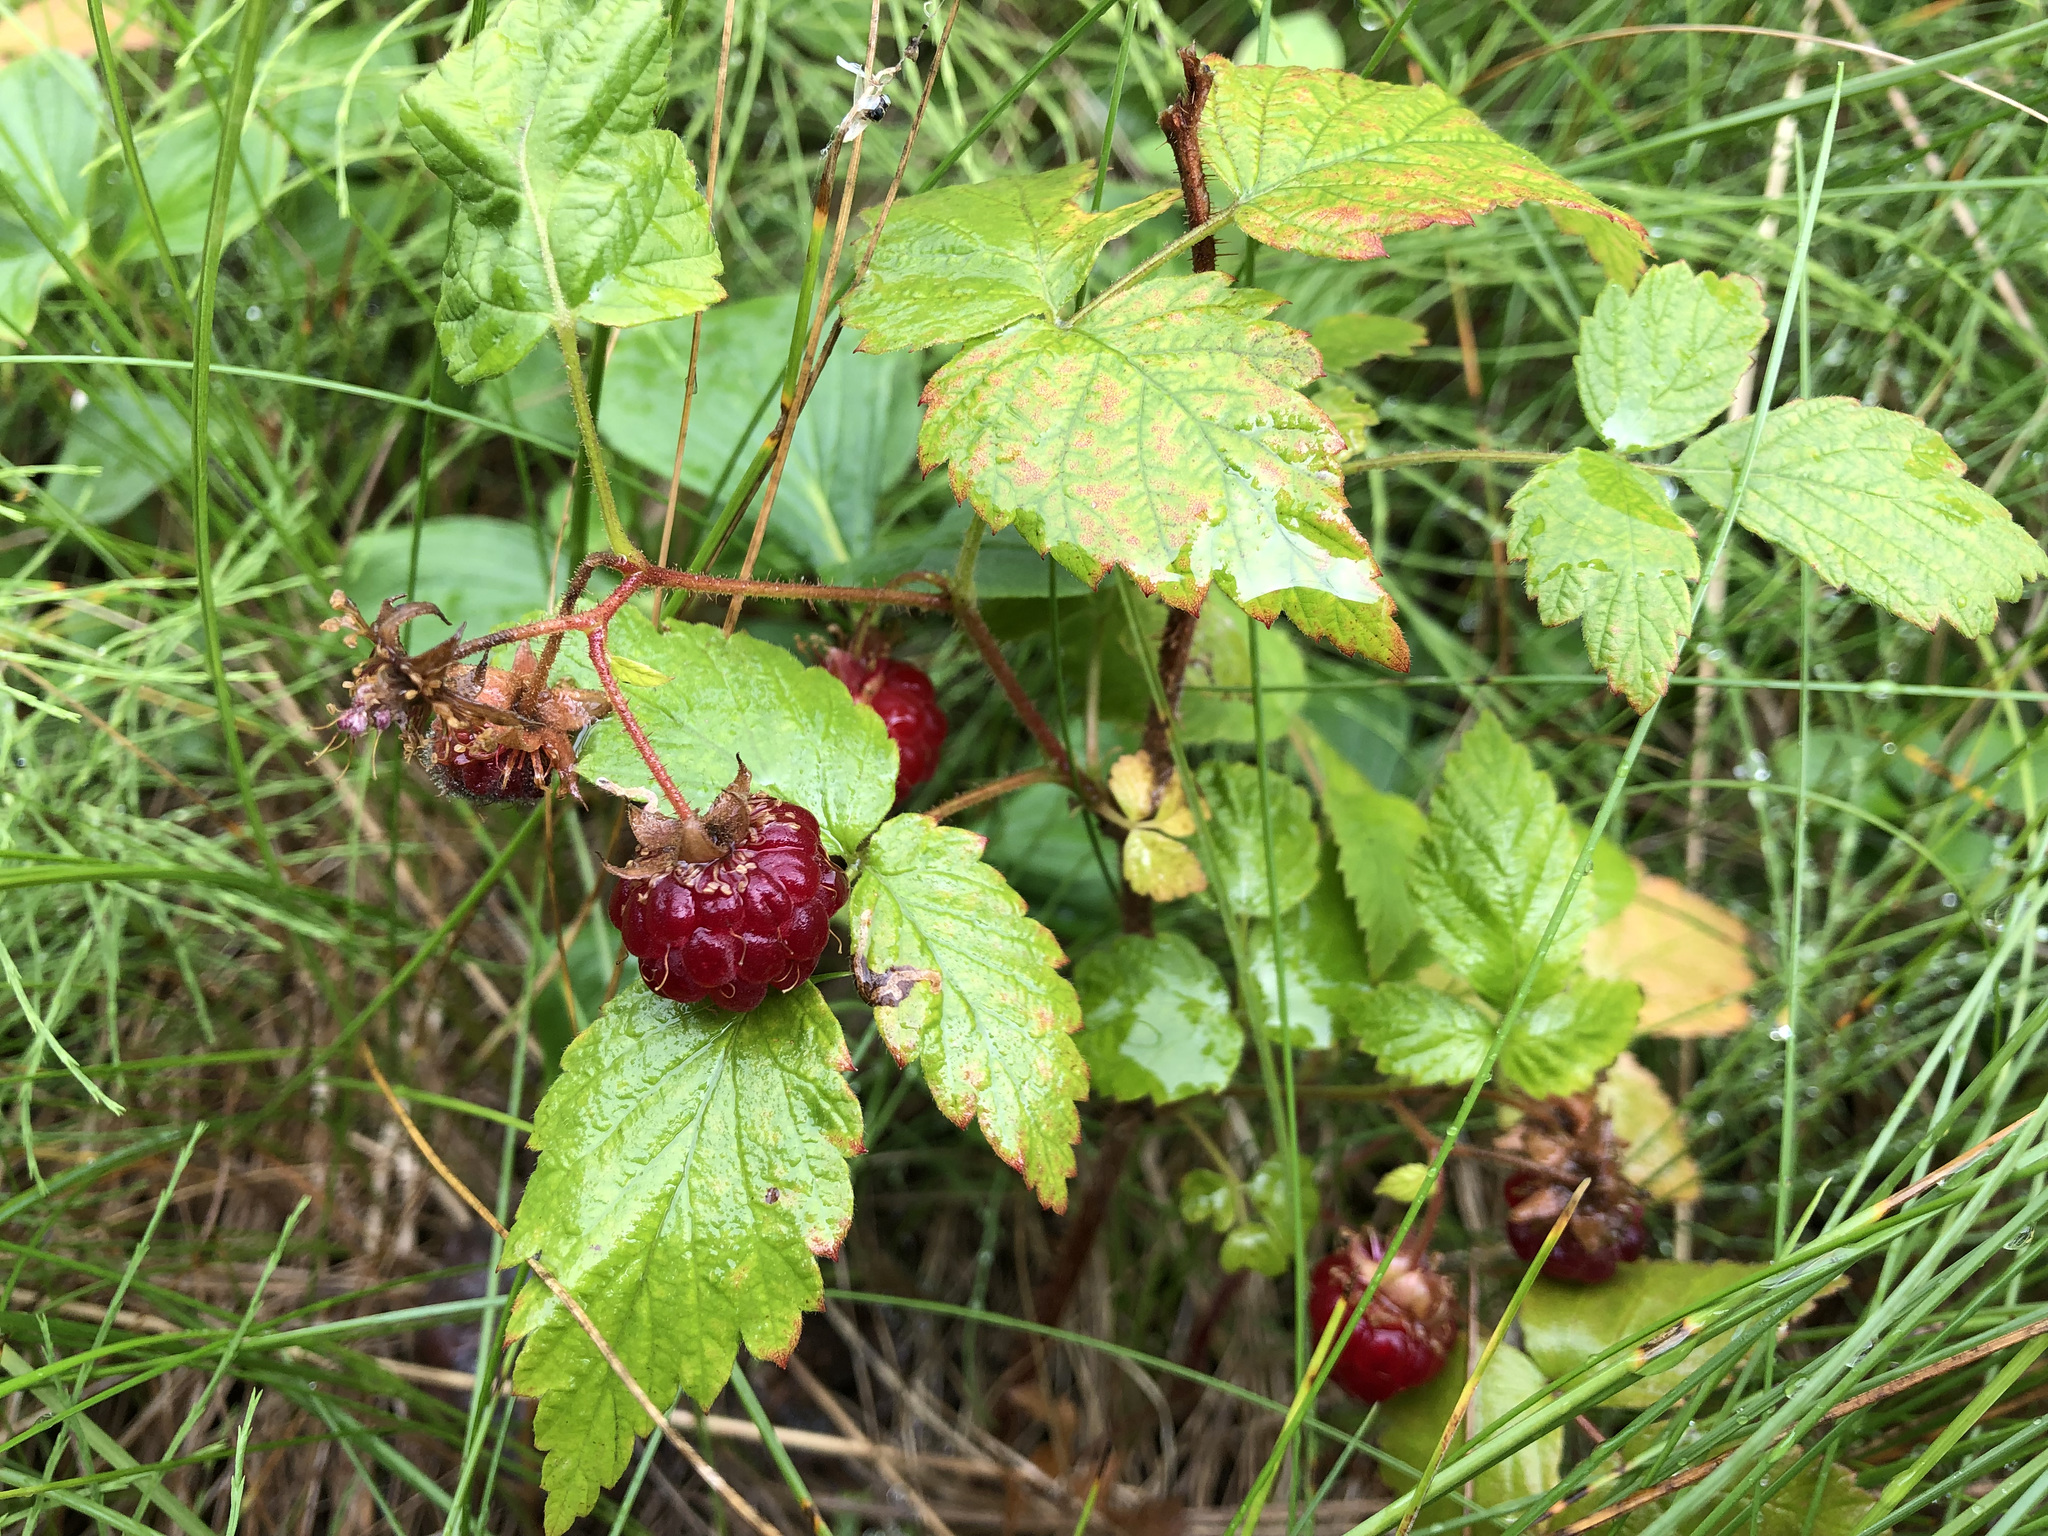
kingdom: Plantae
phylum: Tracheophyta
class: Magnoliopsida
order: Rosales
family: Rosaceae
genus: Rubus
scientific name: Rubus idaeus
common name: Raspberry
